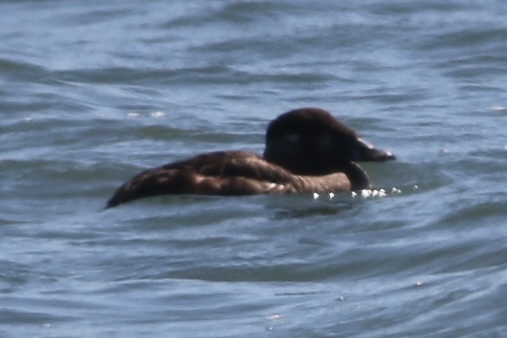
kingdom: Animalia
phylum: Chordata
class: Aves
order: Anseriformes
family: Anatidae
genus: Melanitta
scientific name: Melanitta perspicillata
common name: Surf scoter
